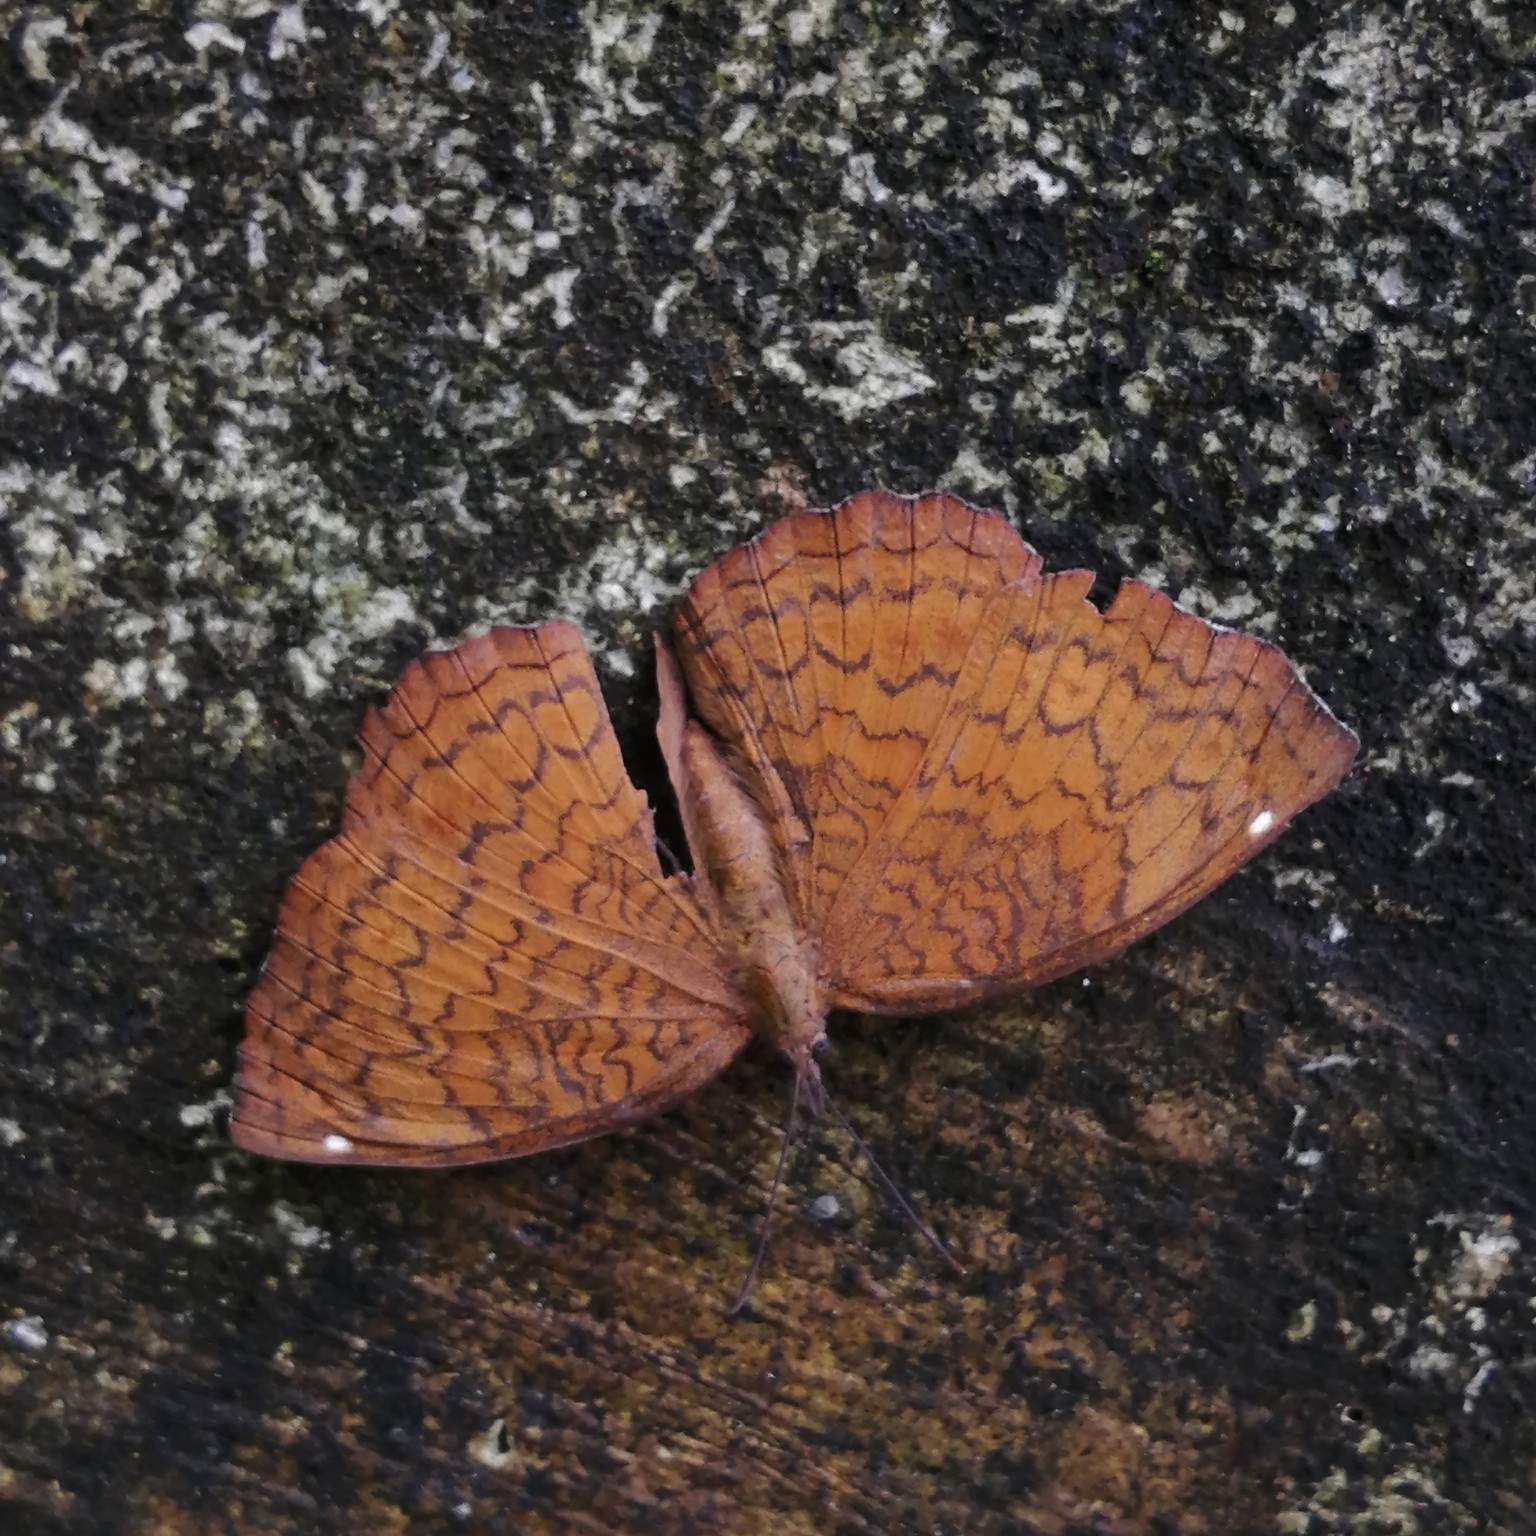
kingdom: Animalia
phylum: Arthropoda
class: Insecta
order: Lepidoptera
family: Nymphalidae
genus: Ariadne
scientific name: Ariadne merione
